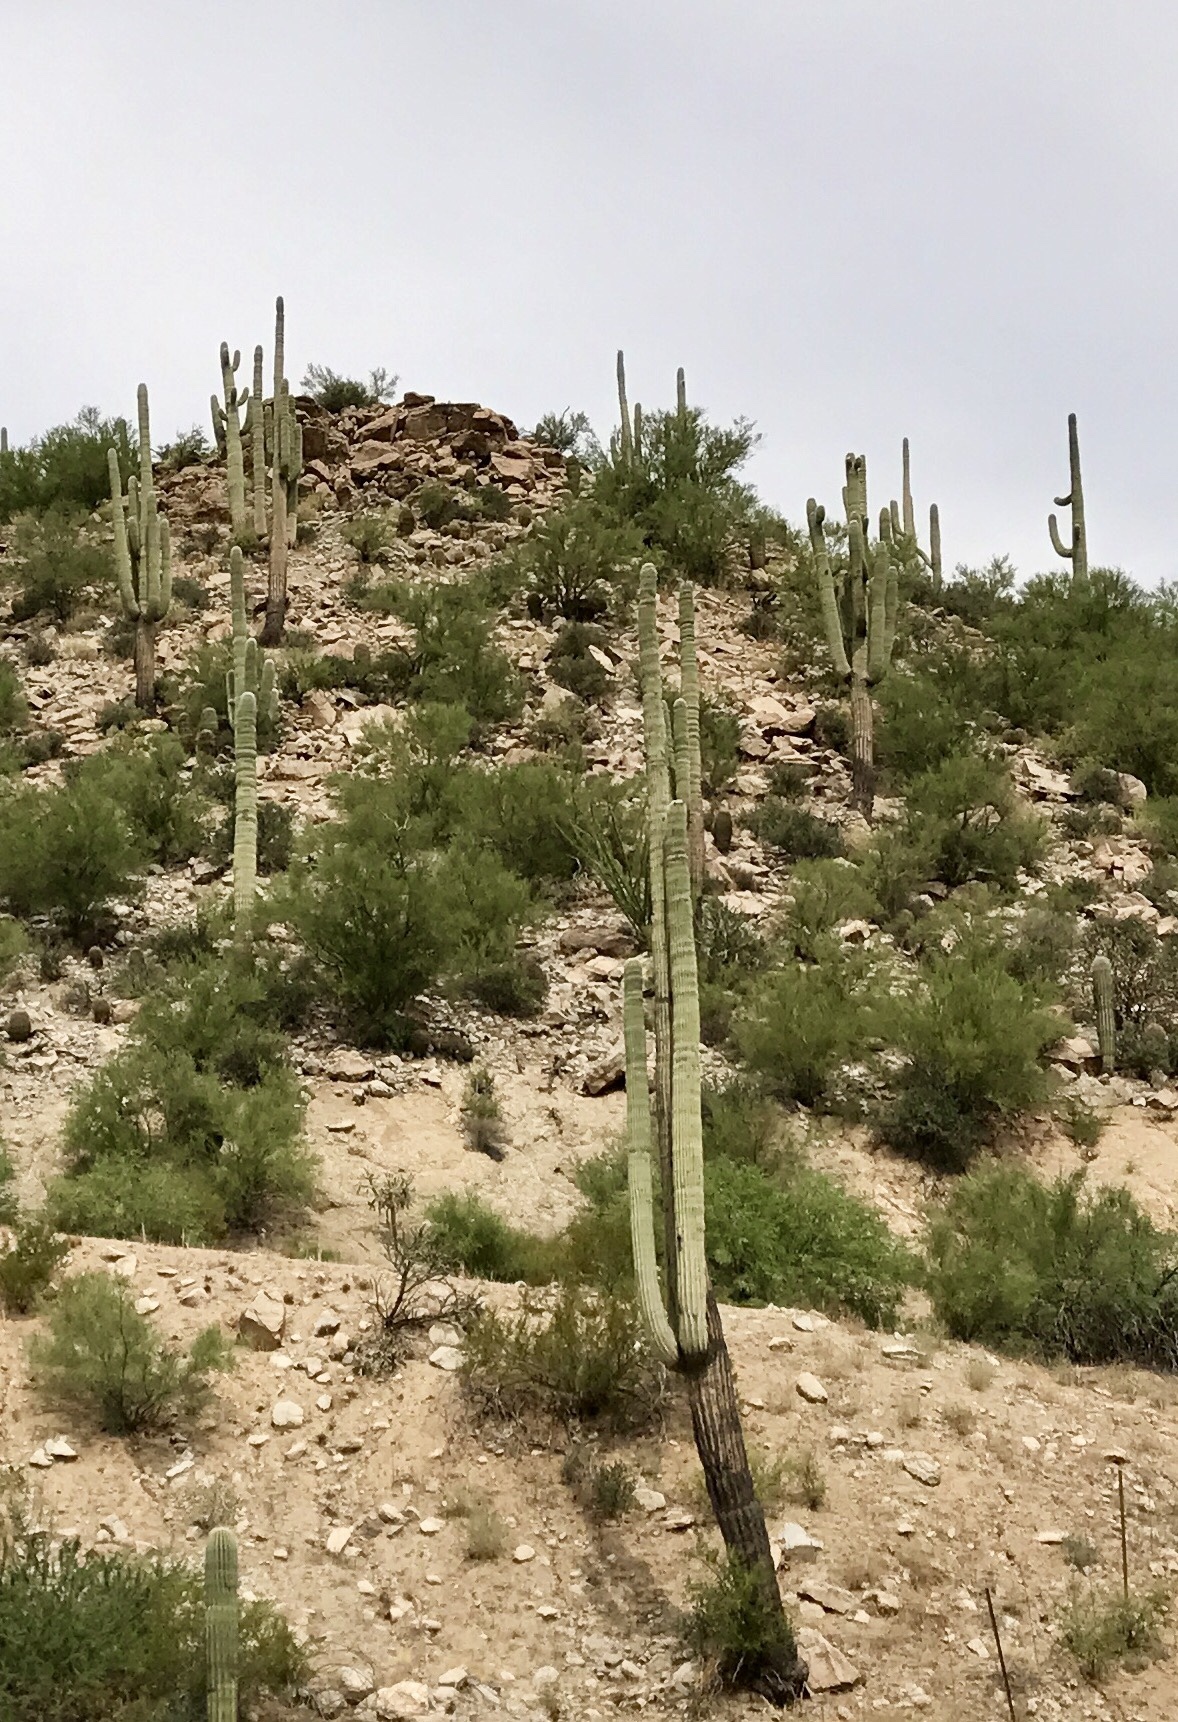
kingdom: Plantae
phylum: Tracheophyta
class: Magnoliopsida
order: Caryophyllales
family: Cactaceae
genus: Carnegiea
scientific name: Carnegiea gigantea
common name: Saguaro
